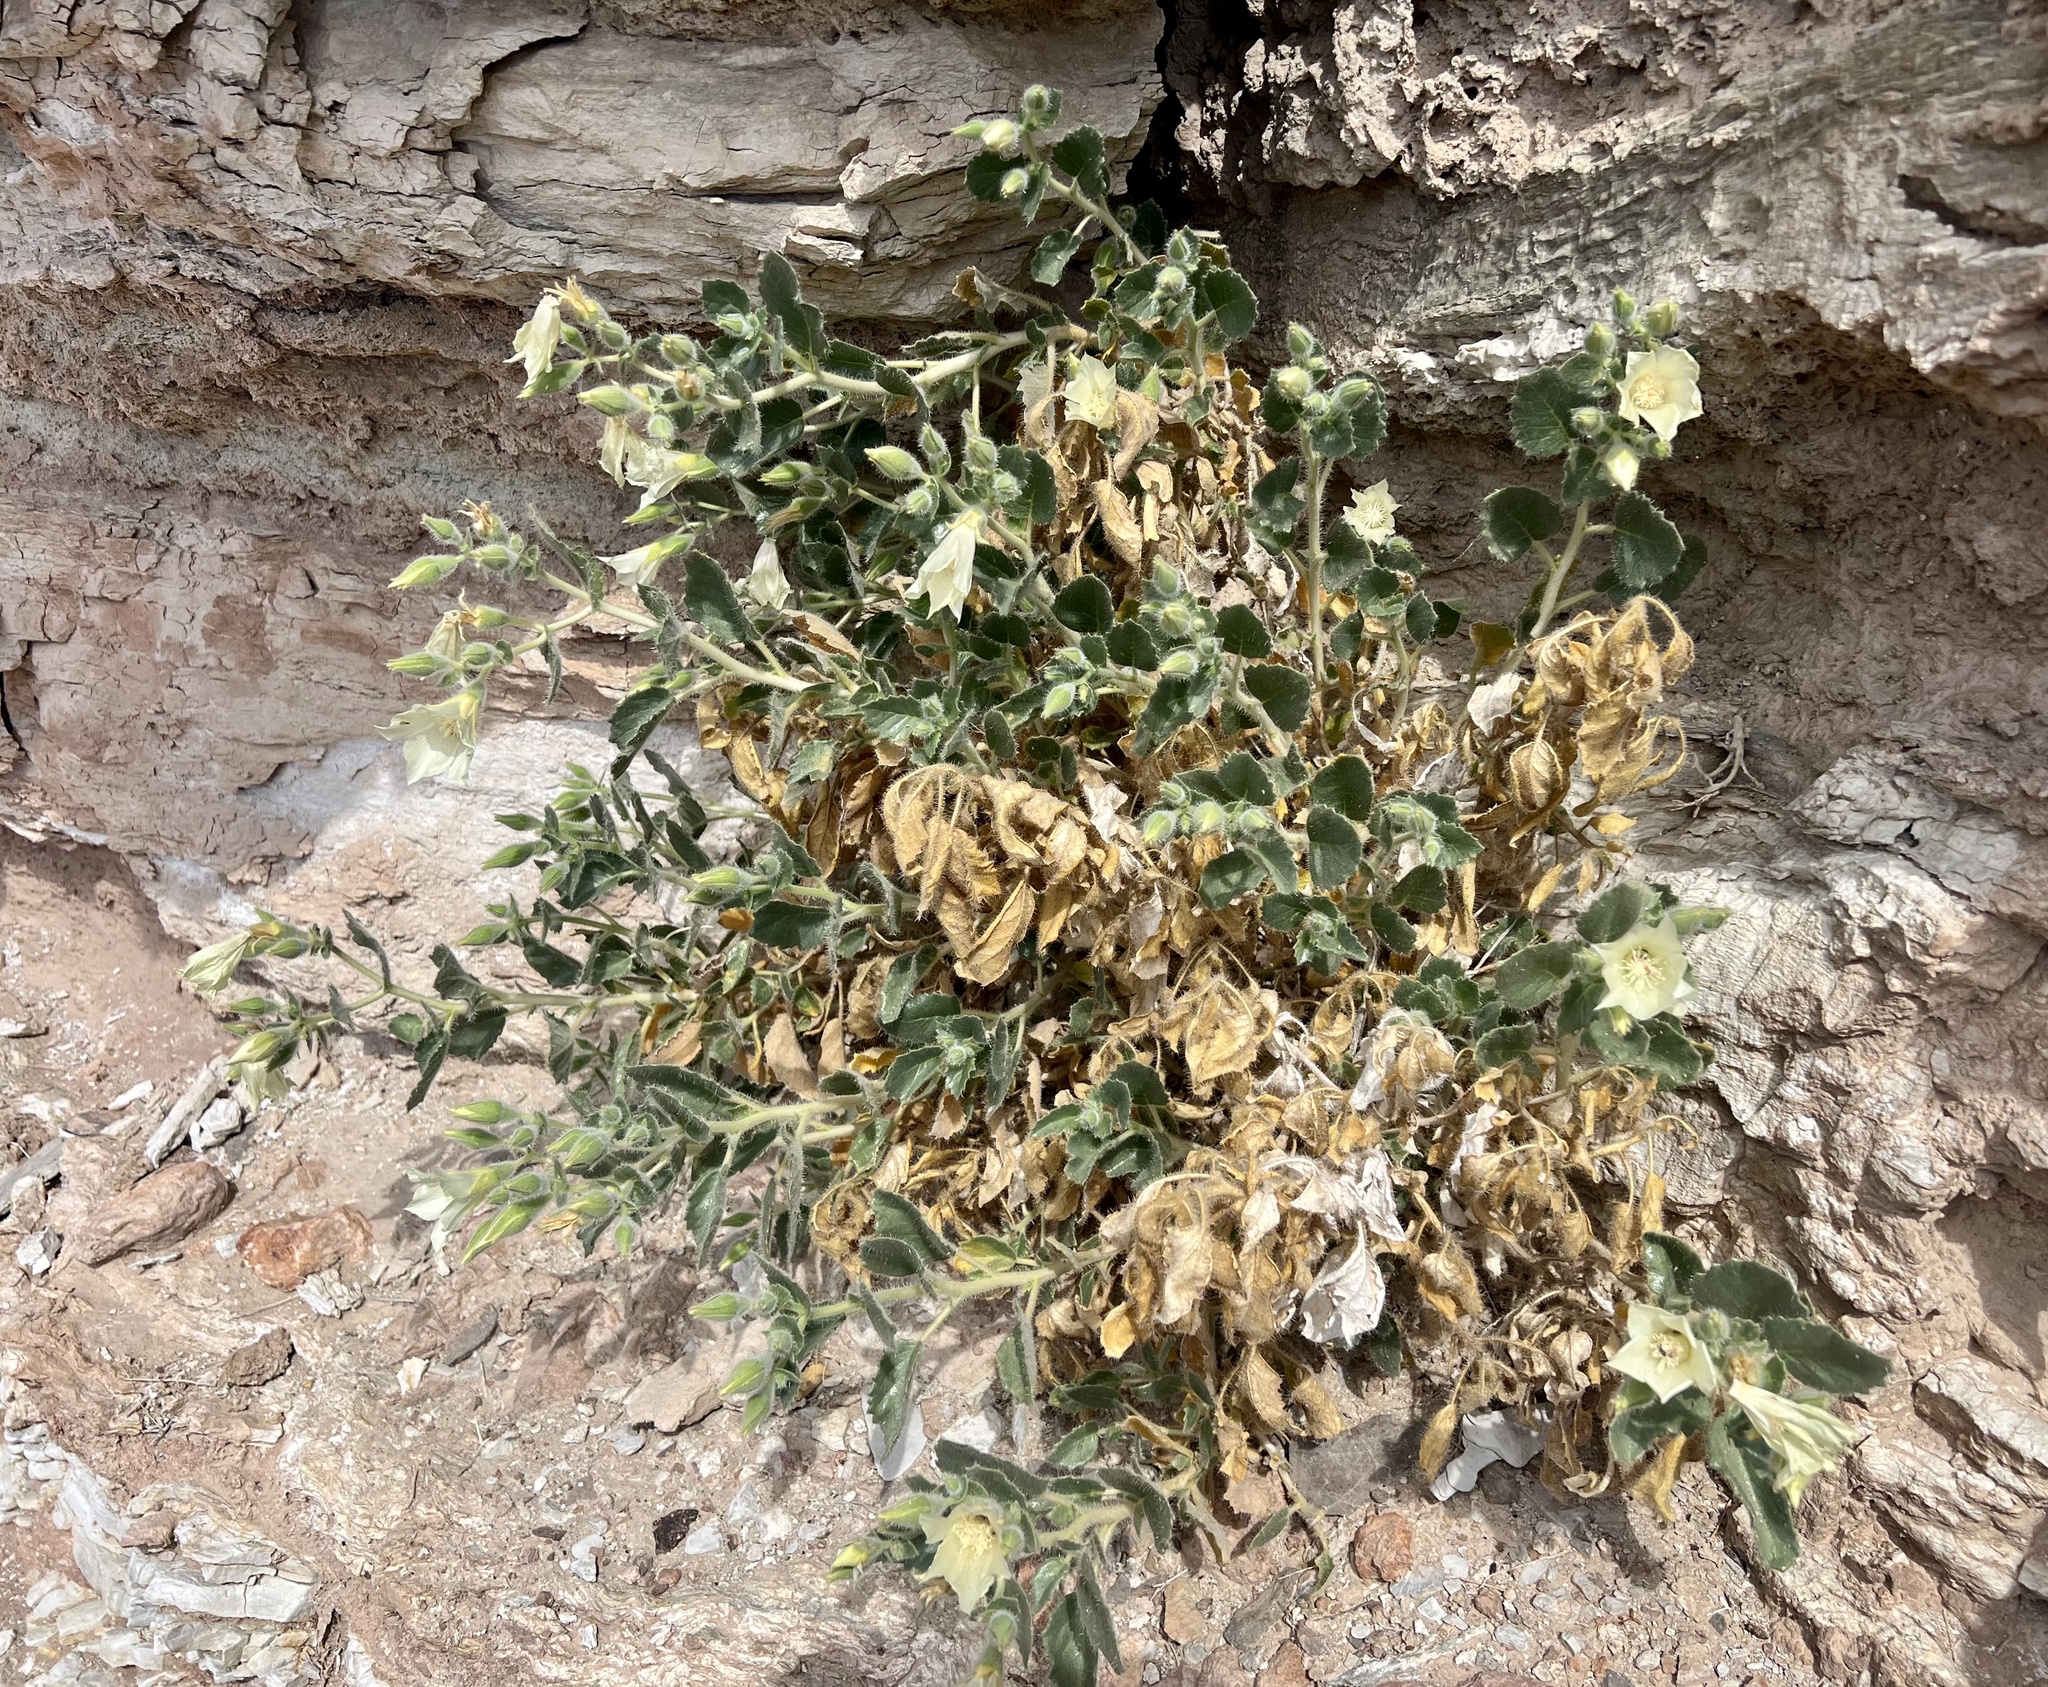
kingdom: Plantae
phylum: Tracheophyta
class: Magnoliopsida
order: Cornales
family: Loasaceae
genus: Eucnide
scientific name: Eucnide urens
